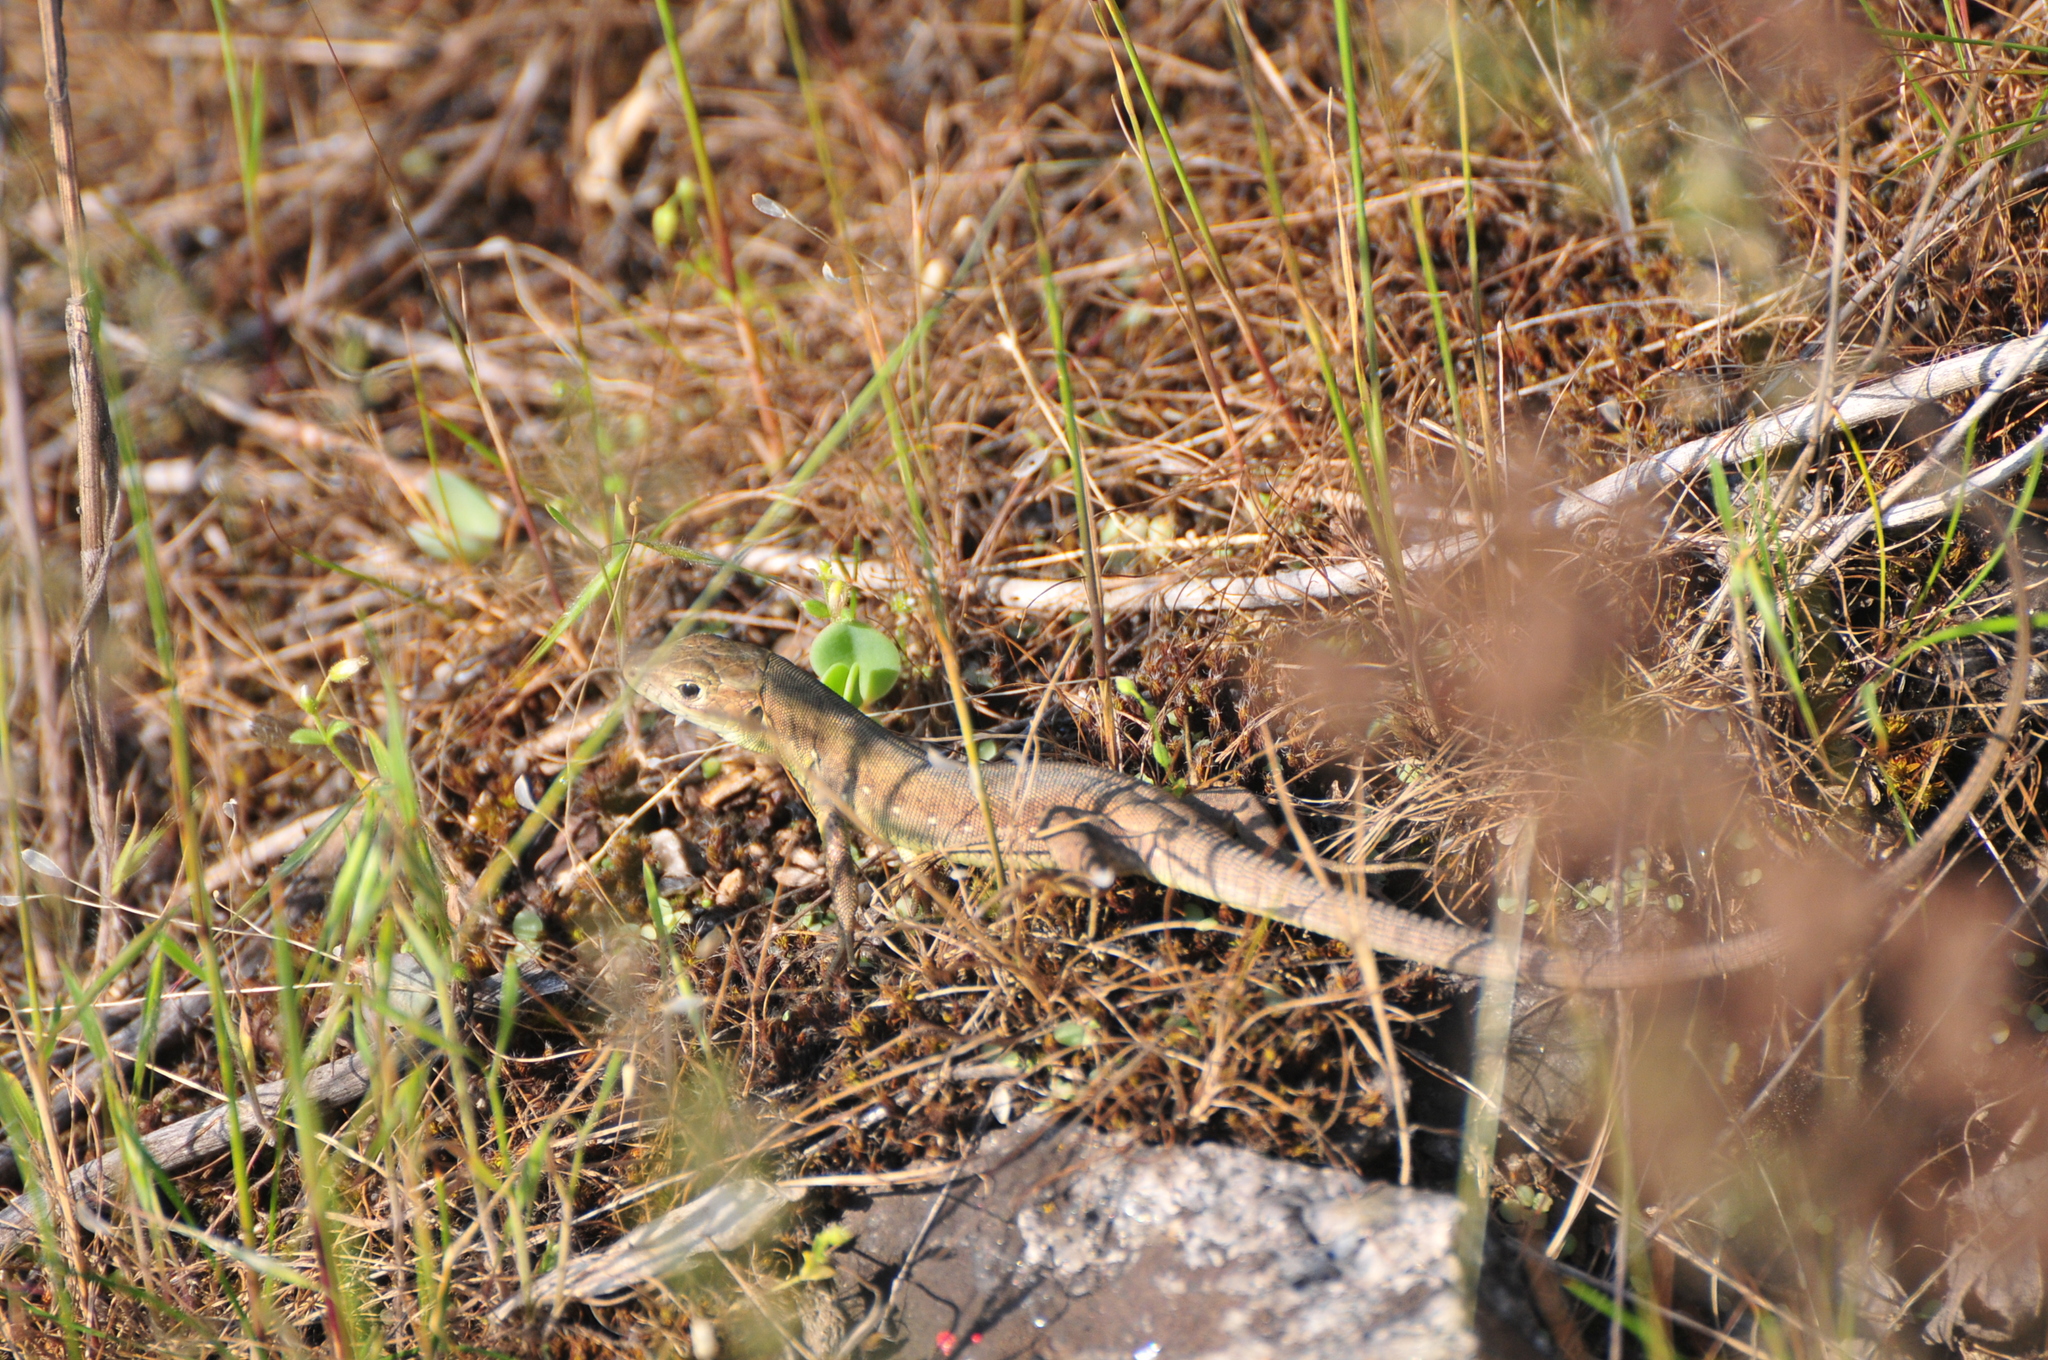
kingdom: Animalia
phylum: Chordata
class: Squamata
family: Lacertidae
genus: Lacerta
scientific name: Lacerta viridis
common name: European green lizard
